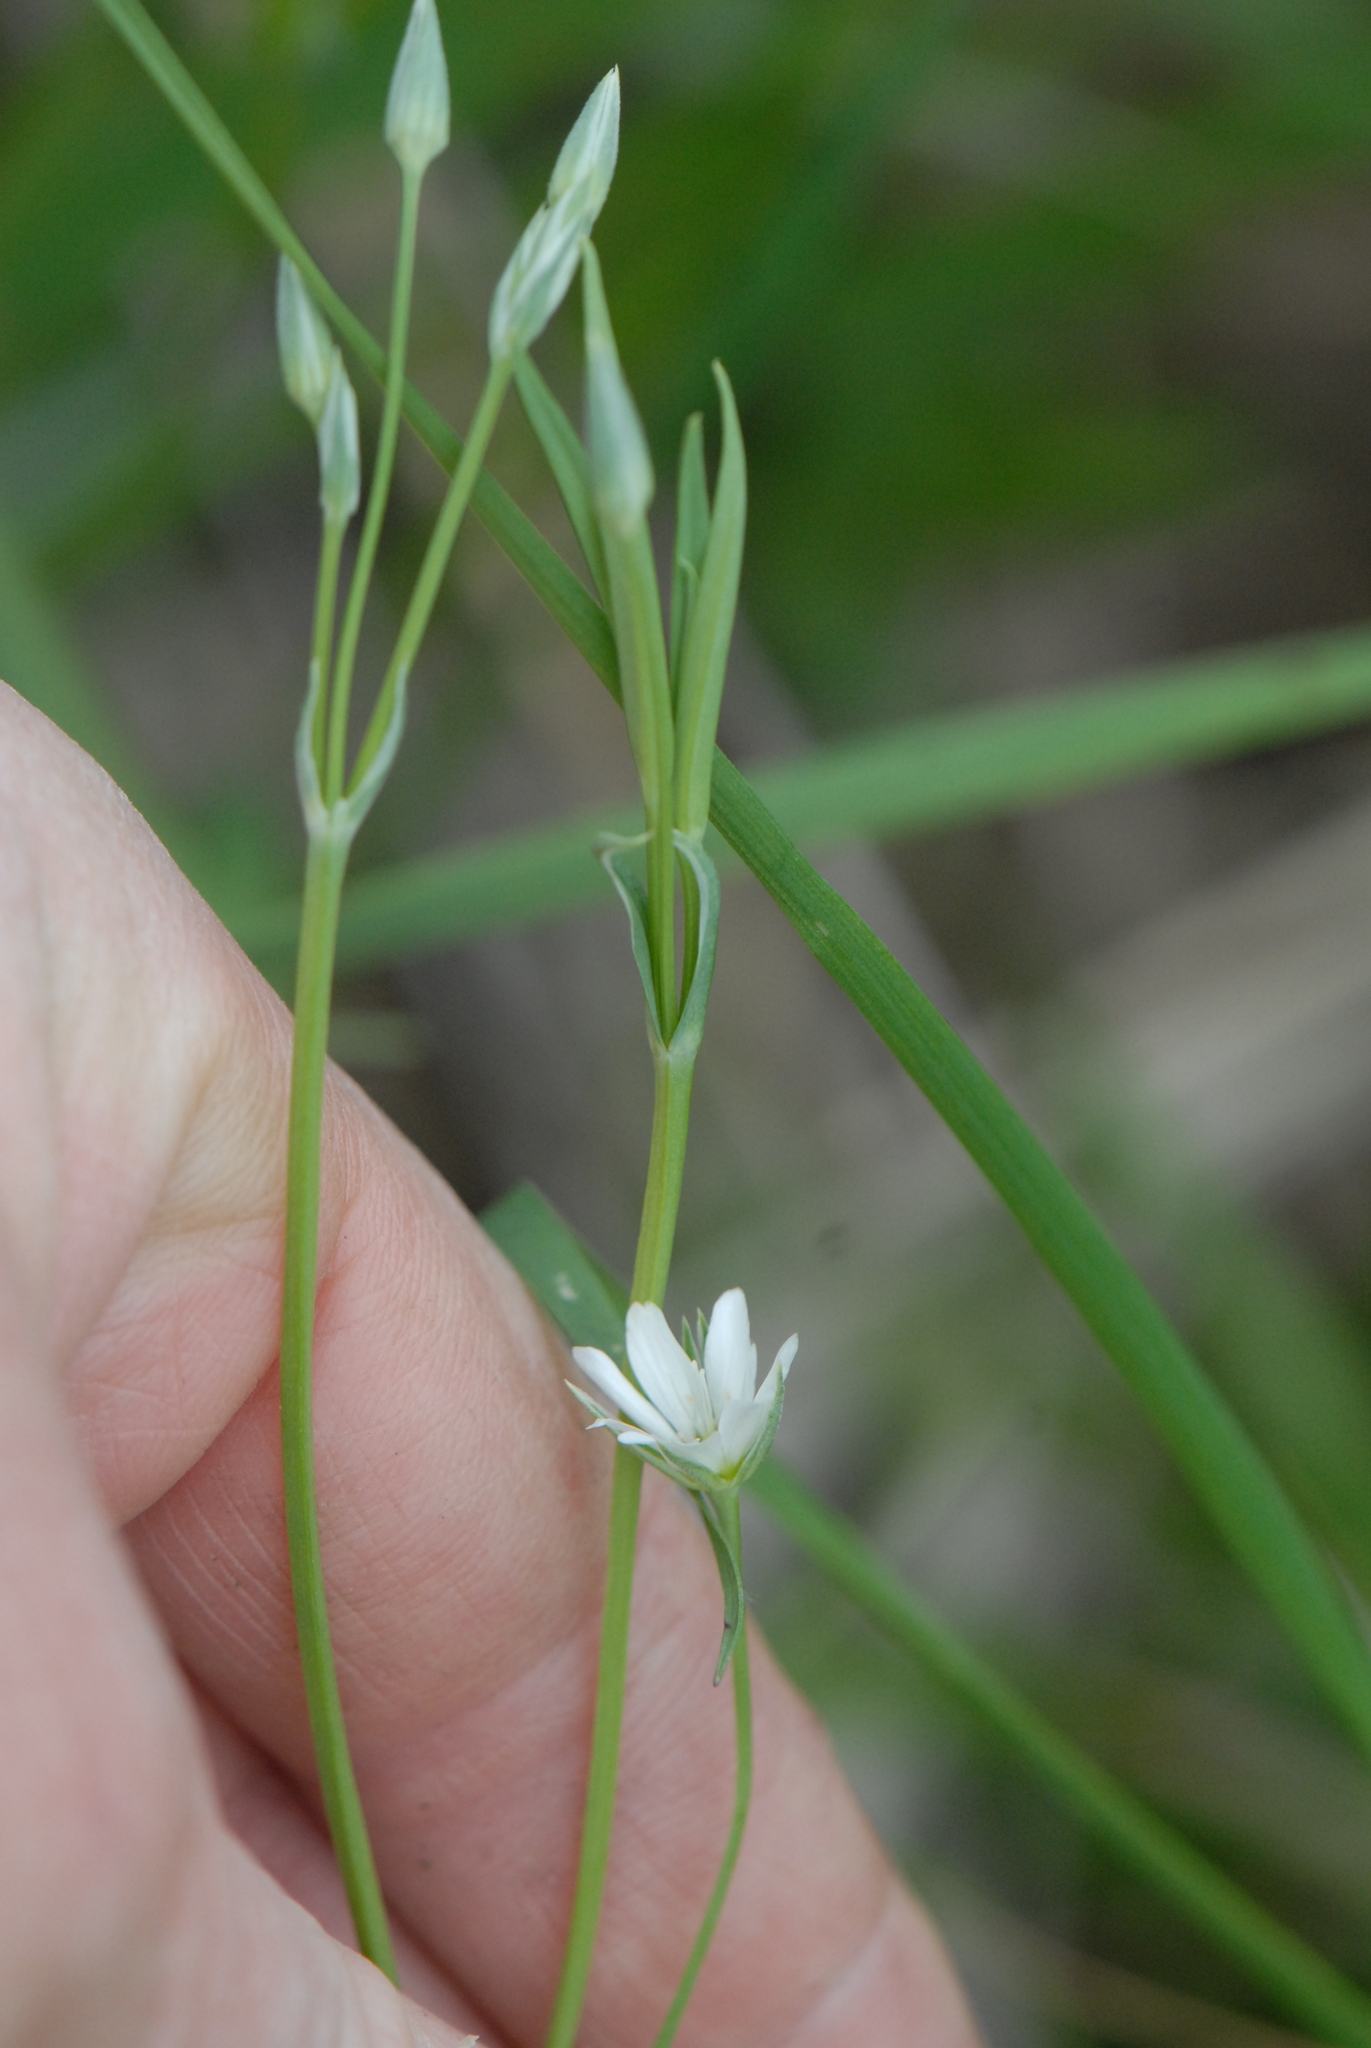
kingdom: Plantae
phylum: Tracheophyta
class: Magnoliopsida
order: Caryophyllales
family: Caryophyllaceae
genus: Stellaria
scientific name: Stellaria palustris
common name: Marsh stitchwort
